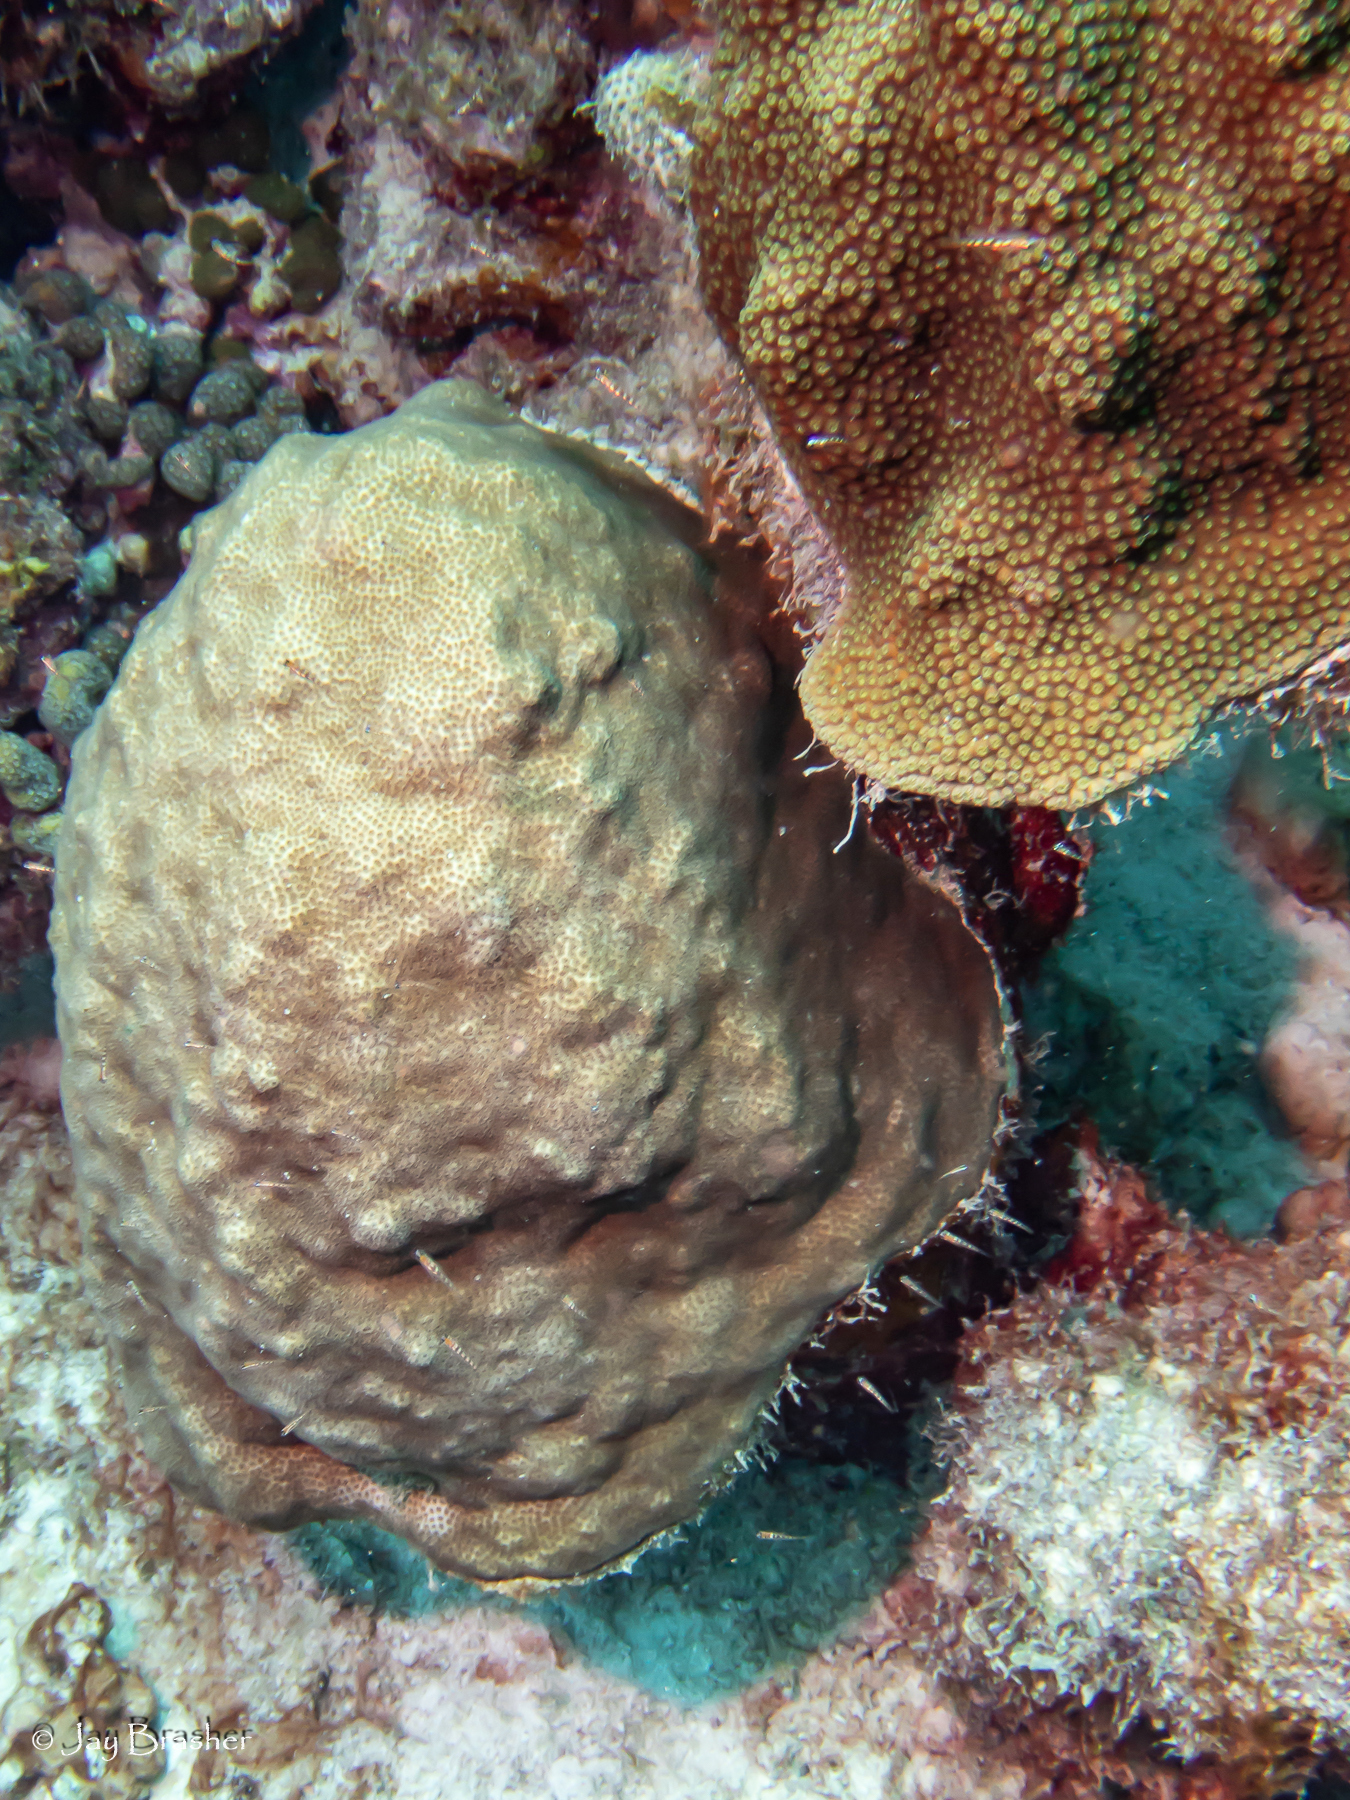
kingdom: Animalia
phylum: Cnidaria
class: Anthozoa
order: Scleractinia
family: Merulinidae
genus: Orbicella
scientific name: Orbicella faveolata
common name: Mountainous star coral
